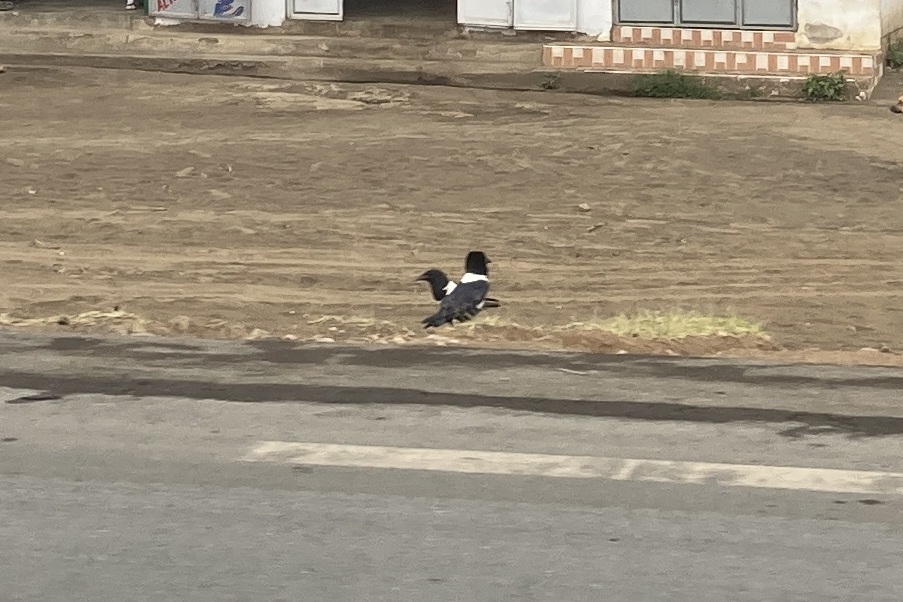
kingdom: Animalia
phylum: Chordata
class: Aves
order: Passeriformes
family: Corvidae
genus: Corvus
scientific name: Corvus albus
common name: Pied crow
